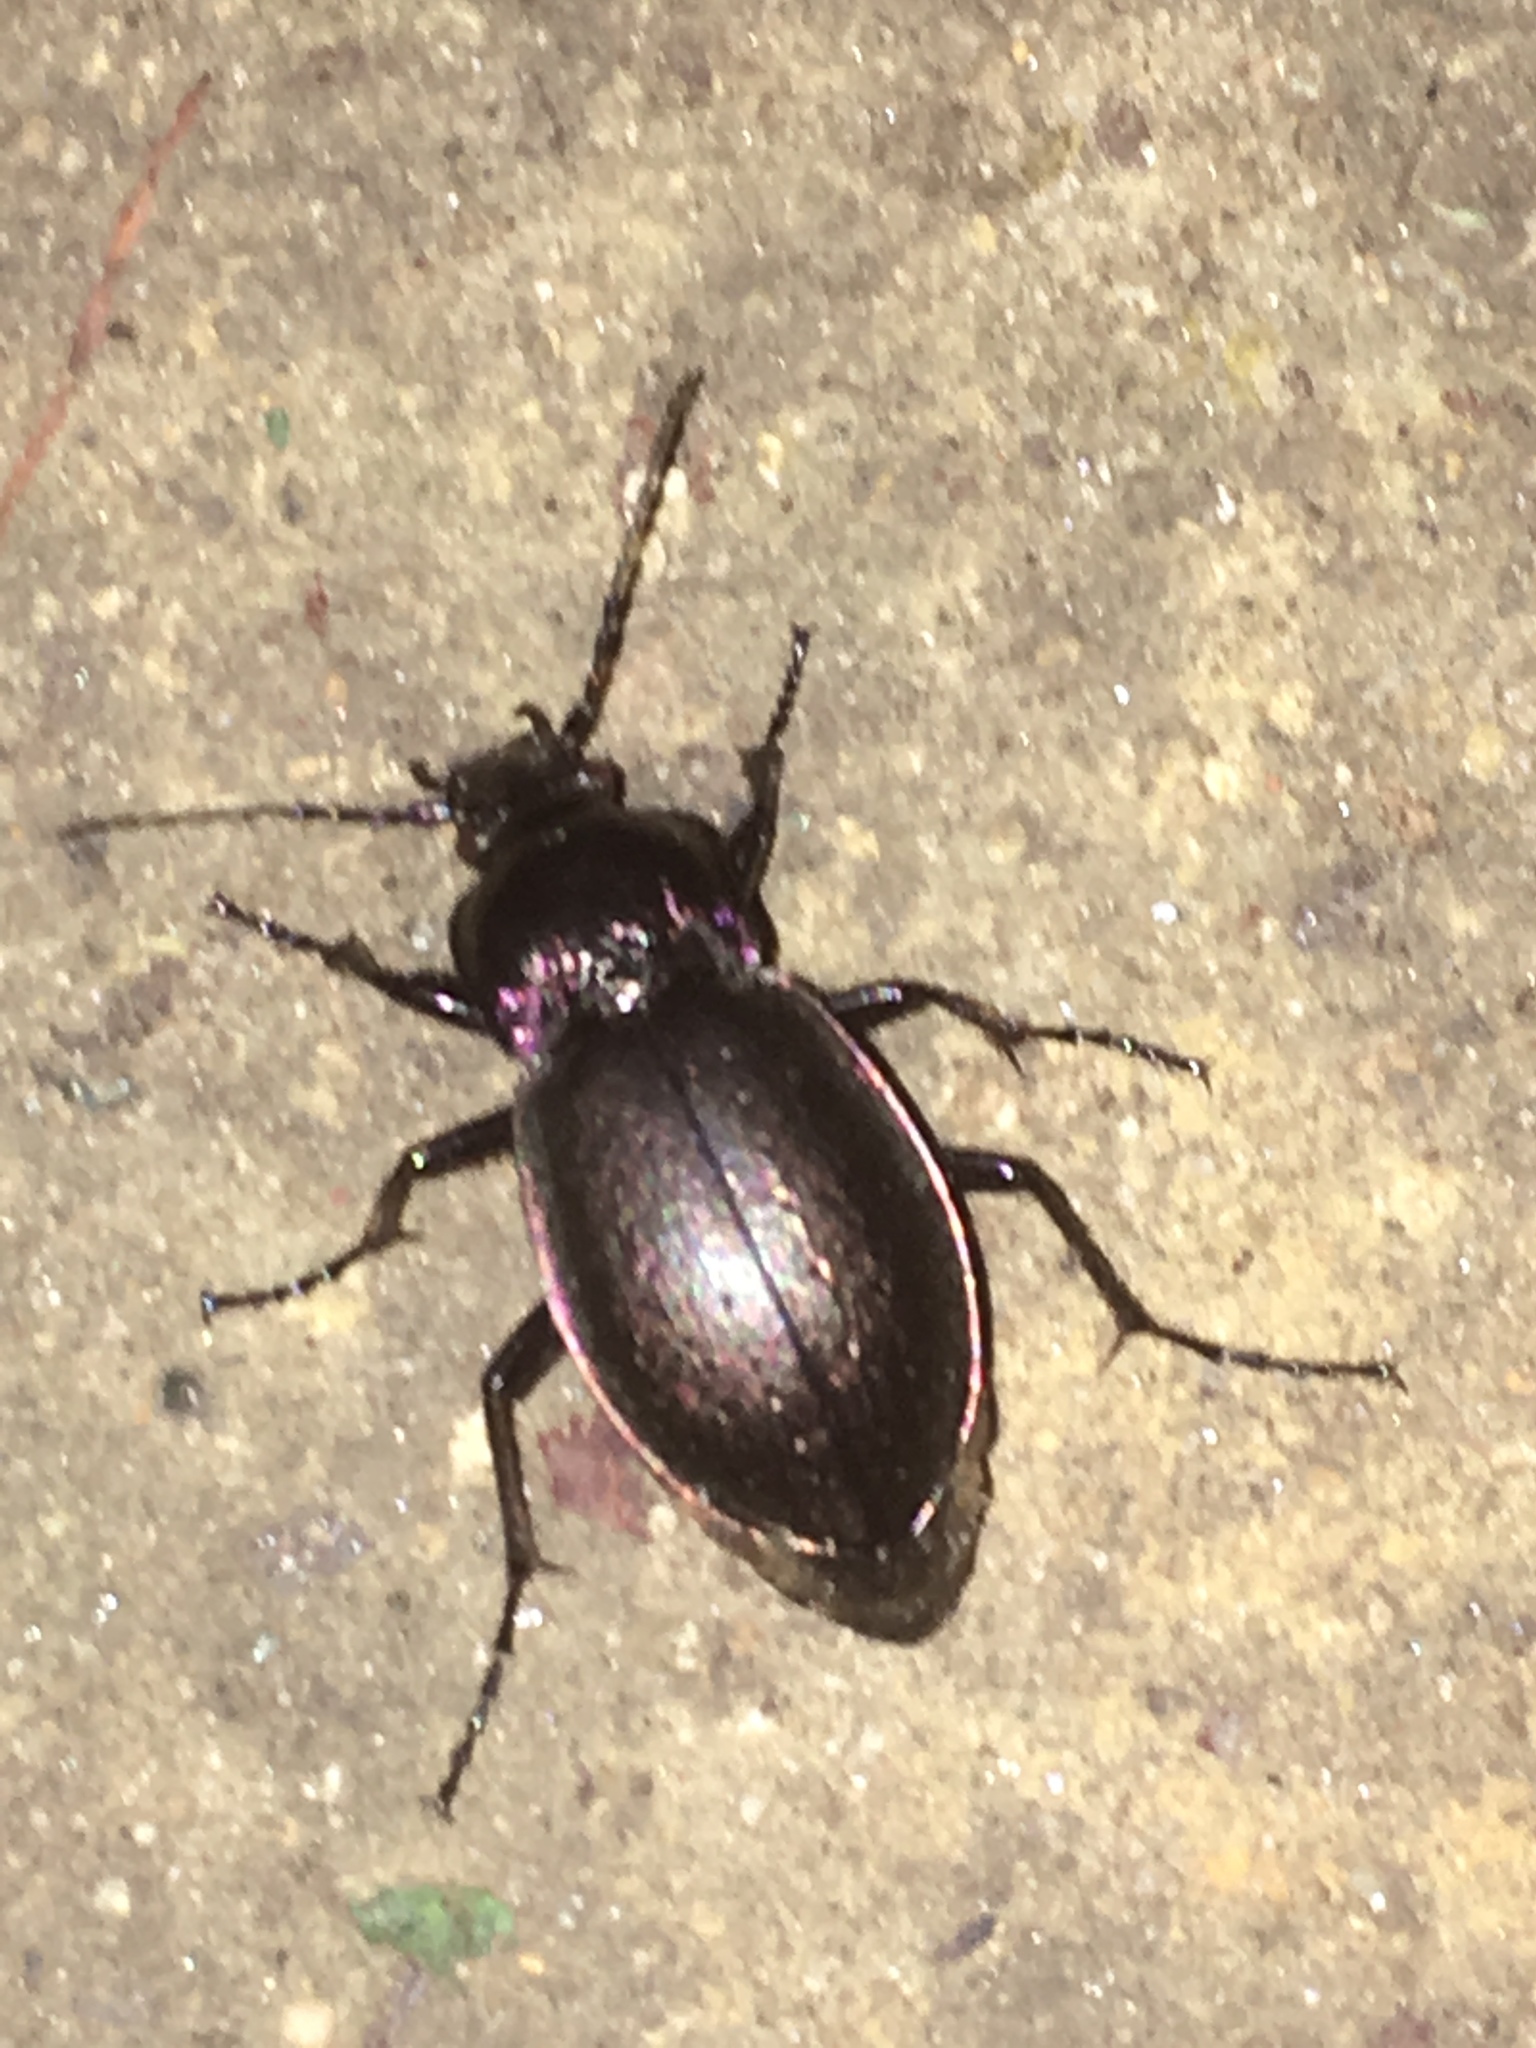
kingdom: Animalia
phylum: Arthropoda
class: Insecta
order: Coleoptera
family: Carabidae
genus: Carabus
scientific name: Carabus nemoralis
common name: European ground beetle
